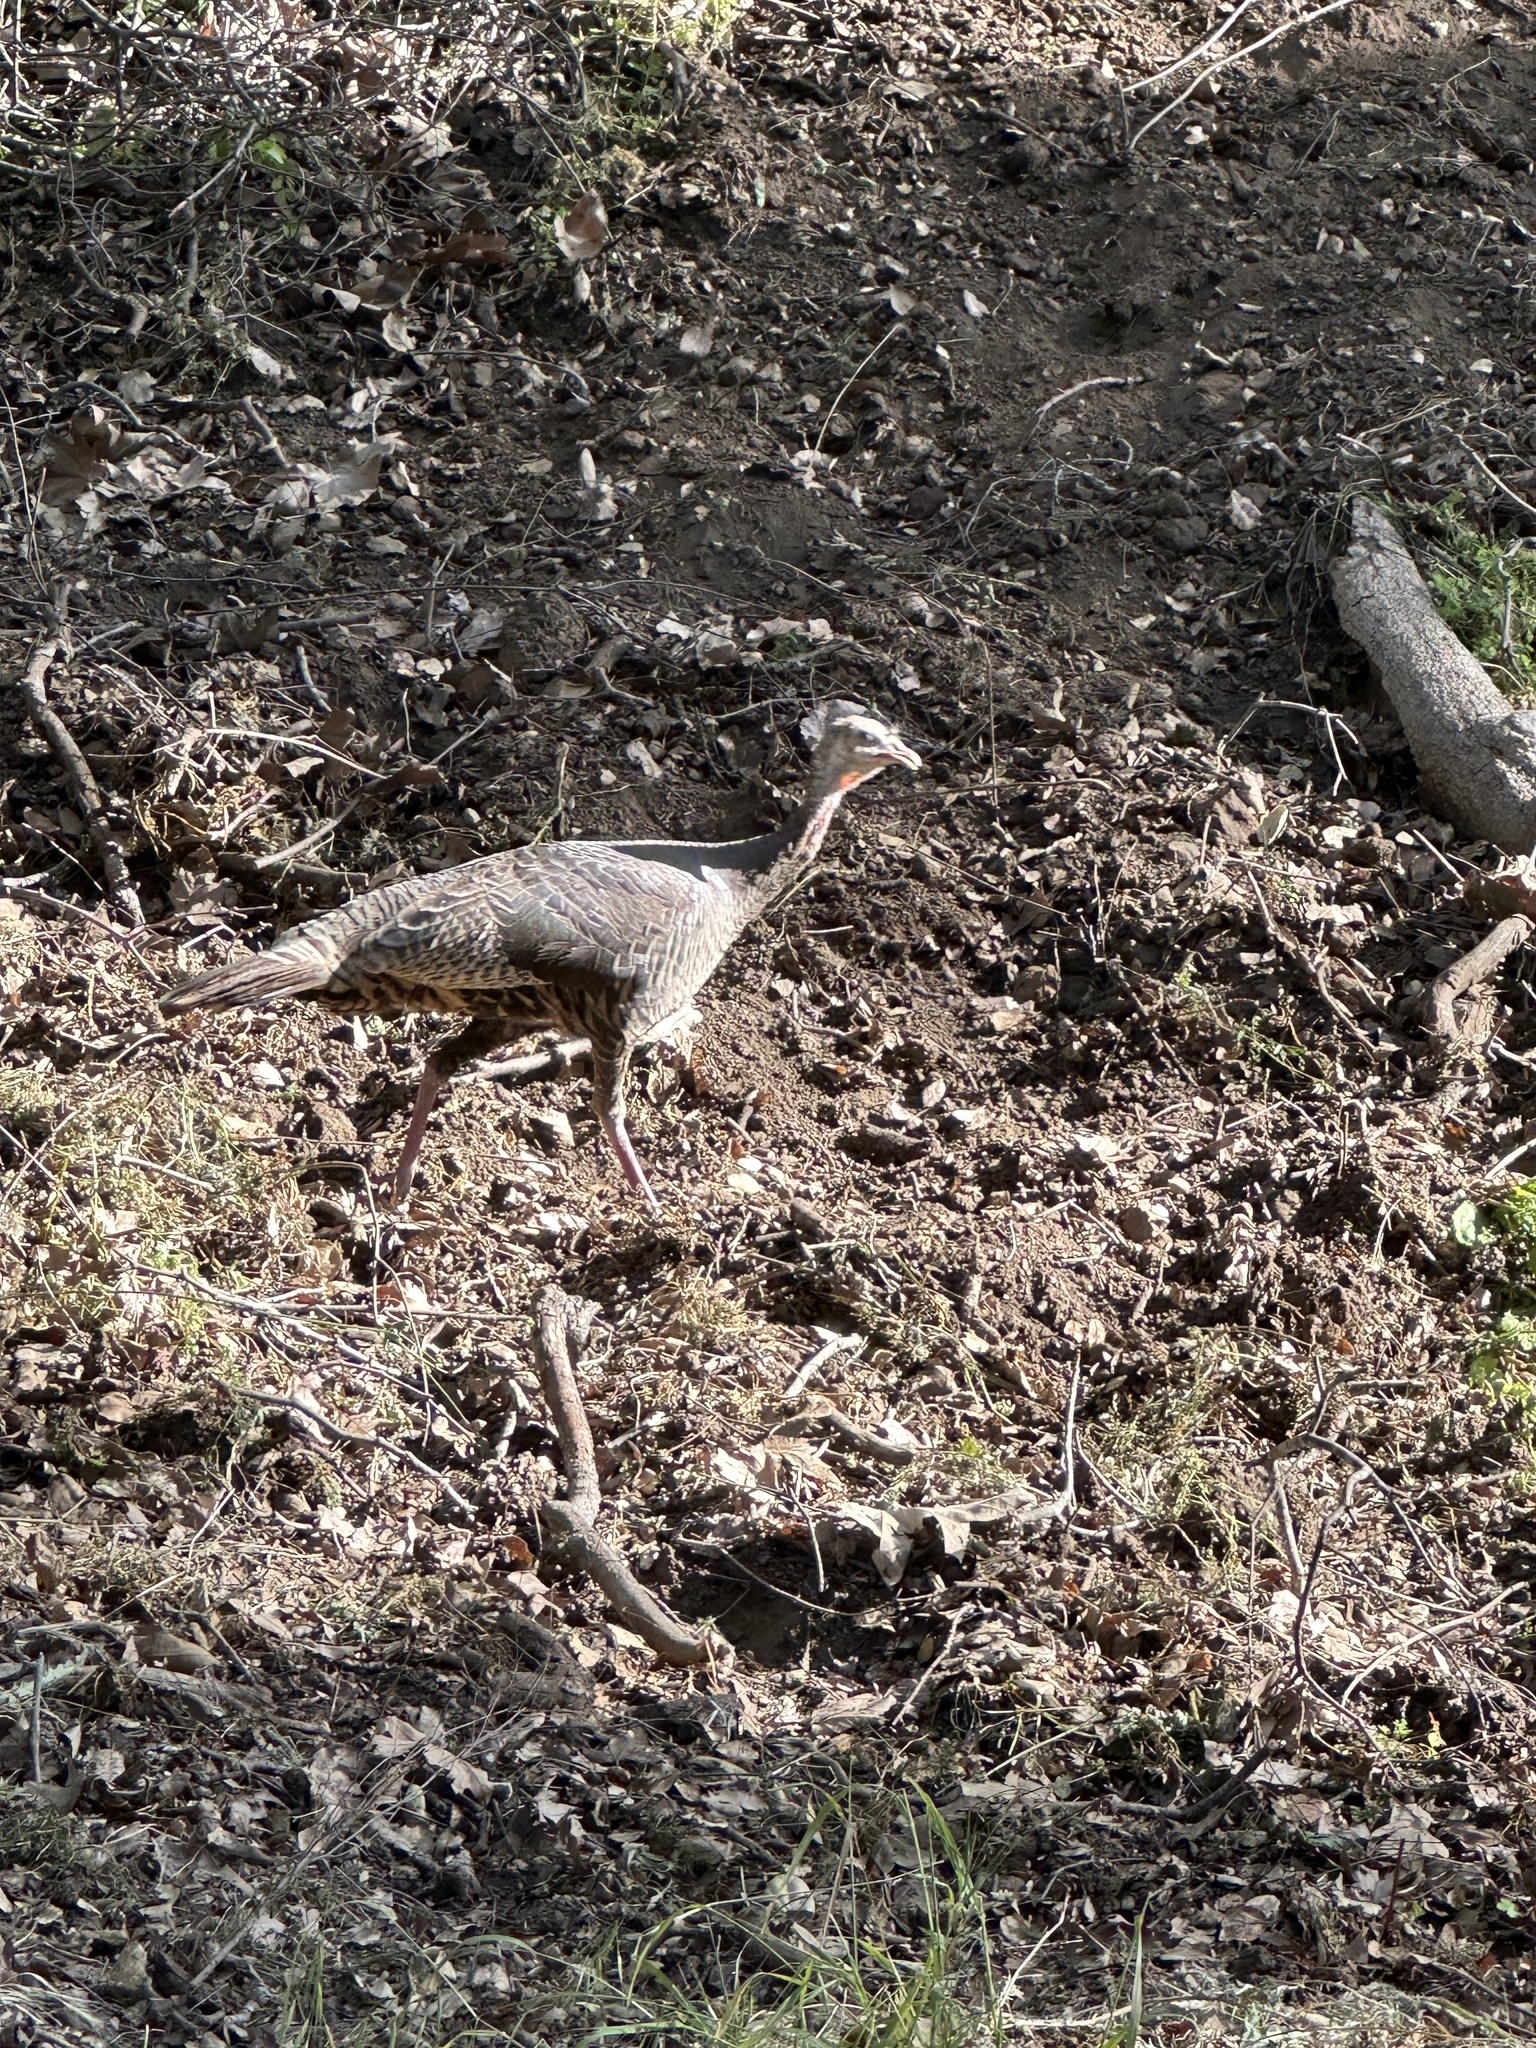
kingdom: Animalia
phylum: Chordata
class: Aves
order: Galliformes
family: Phasianidae
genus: Meleagris
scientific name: Meleagris gallopavo
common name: Wild turkey
